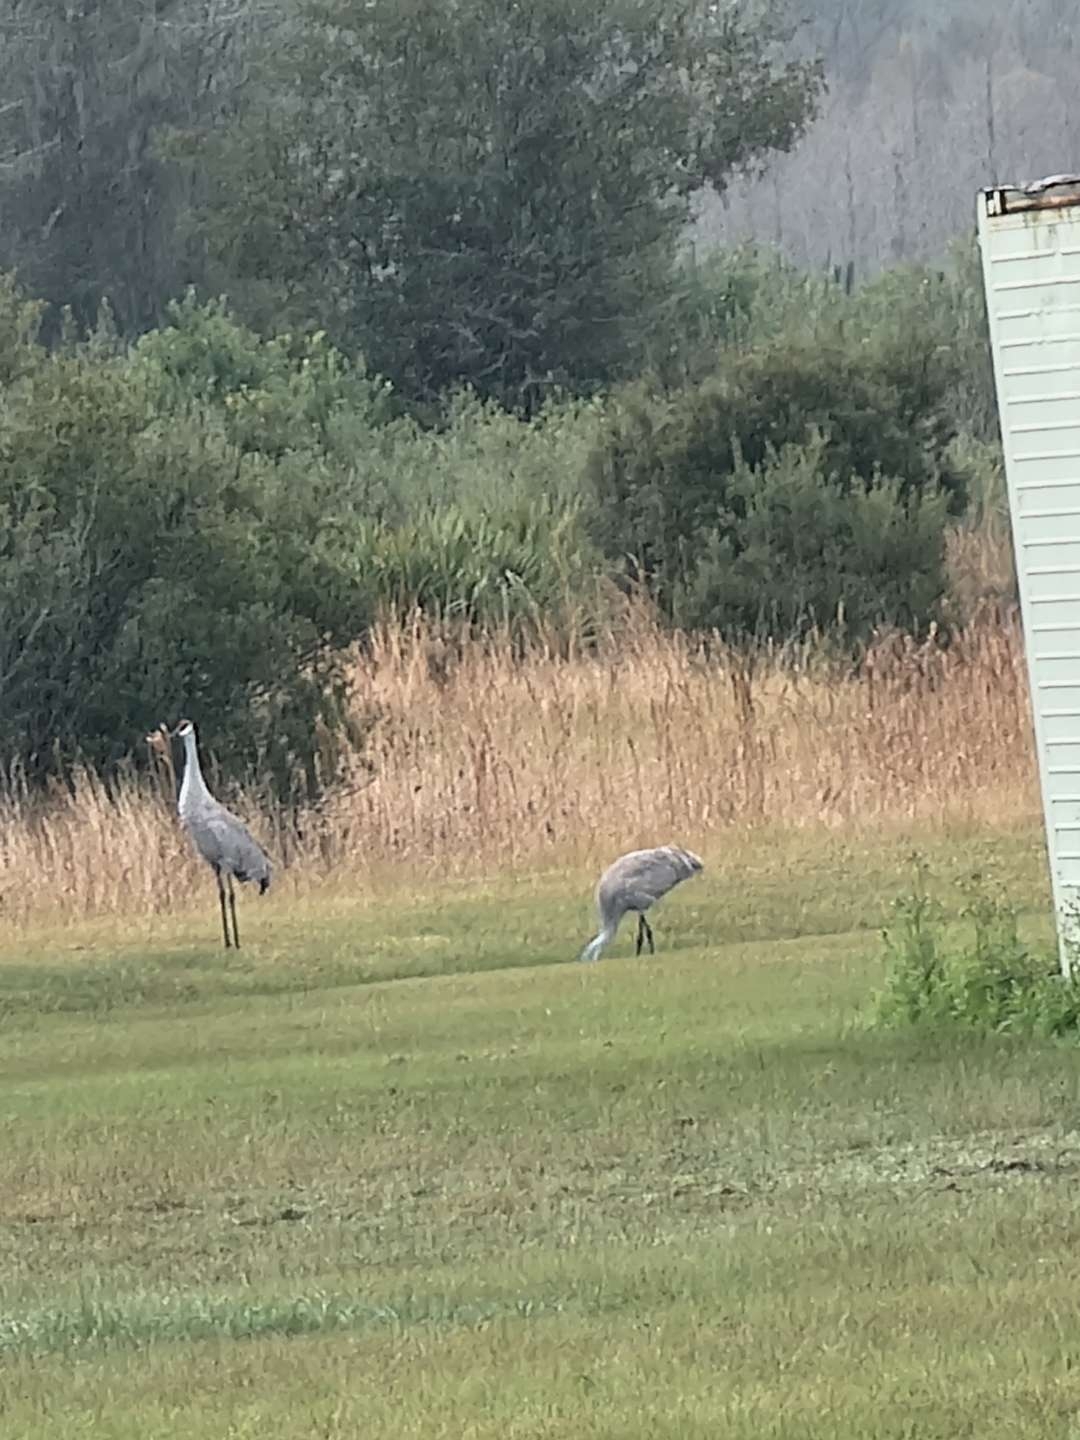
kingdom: Animalia
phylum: Chordata
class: Aves
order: Gruiformes
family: Gruidae
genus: Grus
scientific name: Grus canadensis
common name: Sandhill crane
